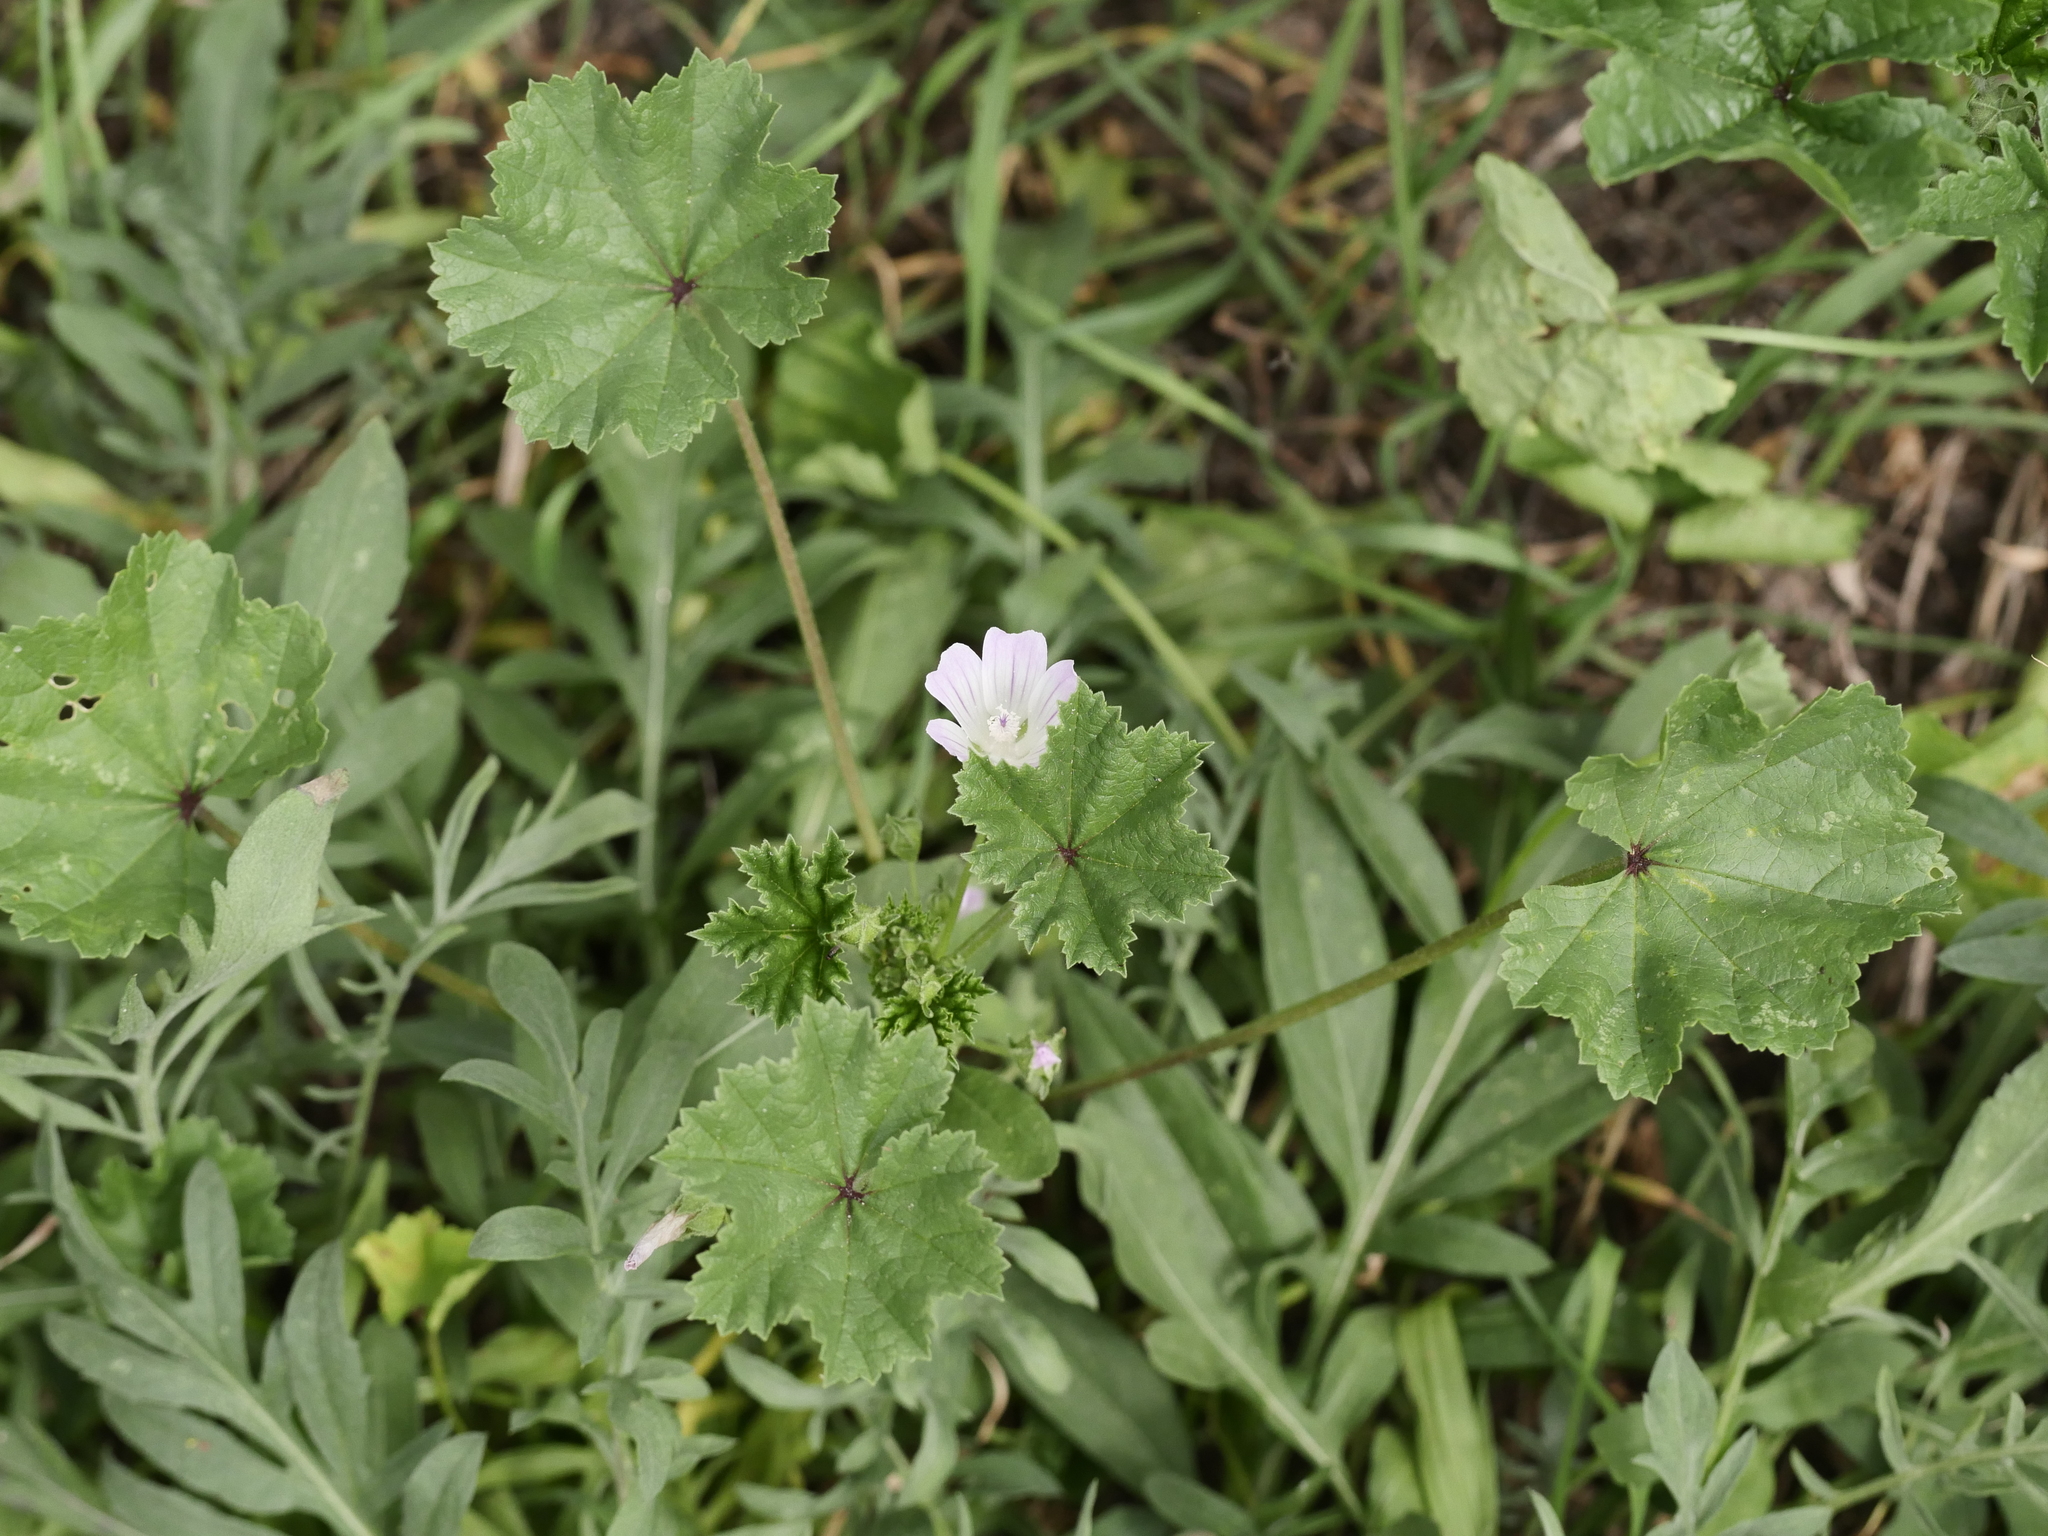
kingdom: Plantae
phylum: Tracheophyta
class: Magnoliopsida
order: Malvales
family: Malvaceae
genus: Malva
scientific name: Malva neglecta
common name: Common mallow
